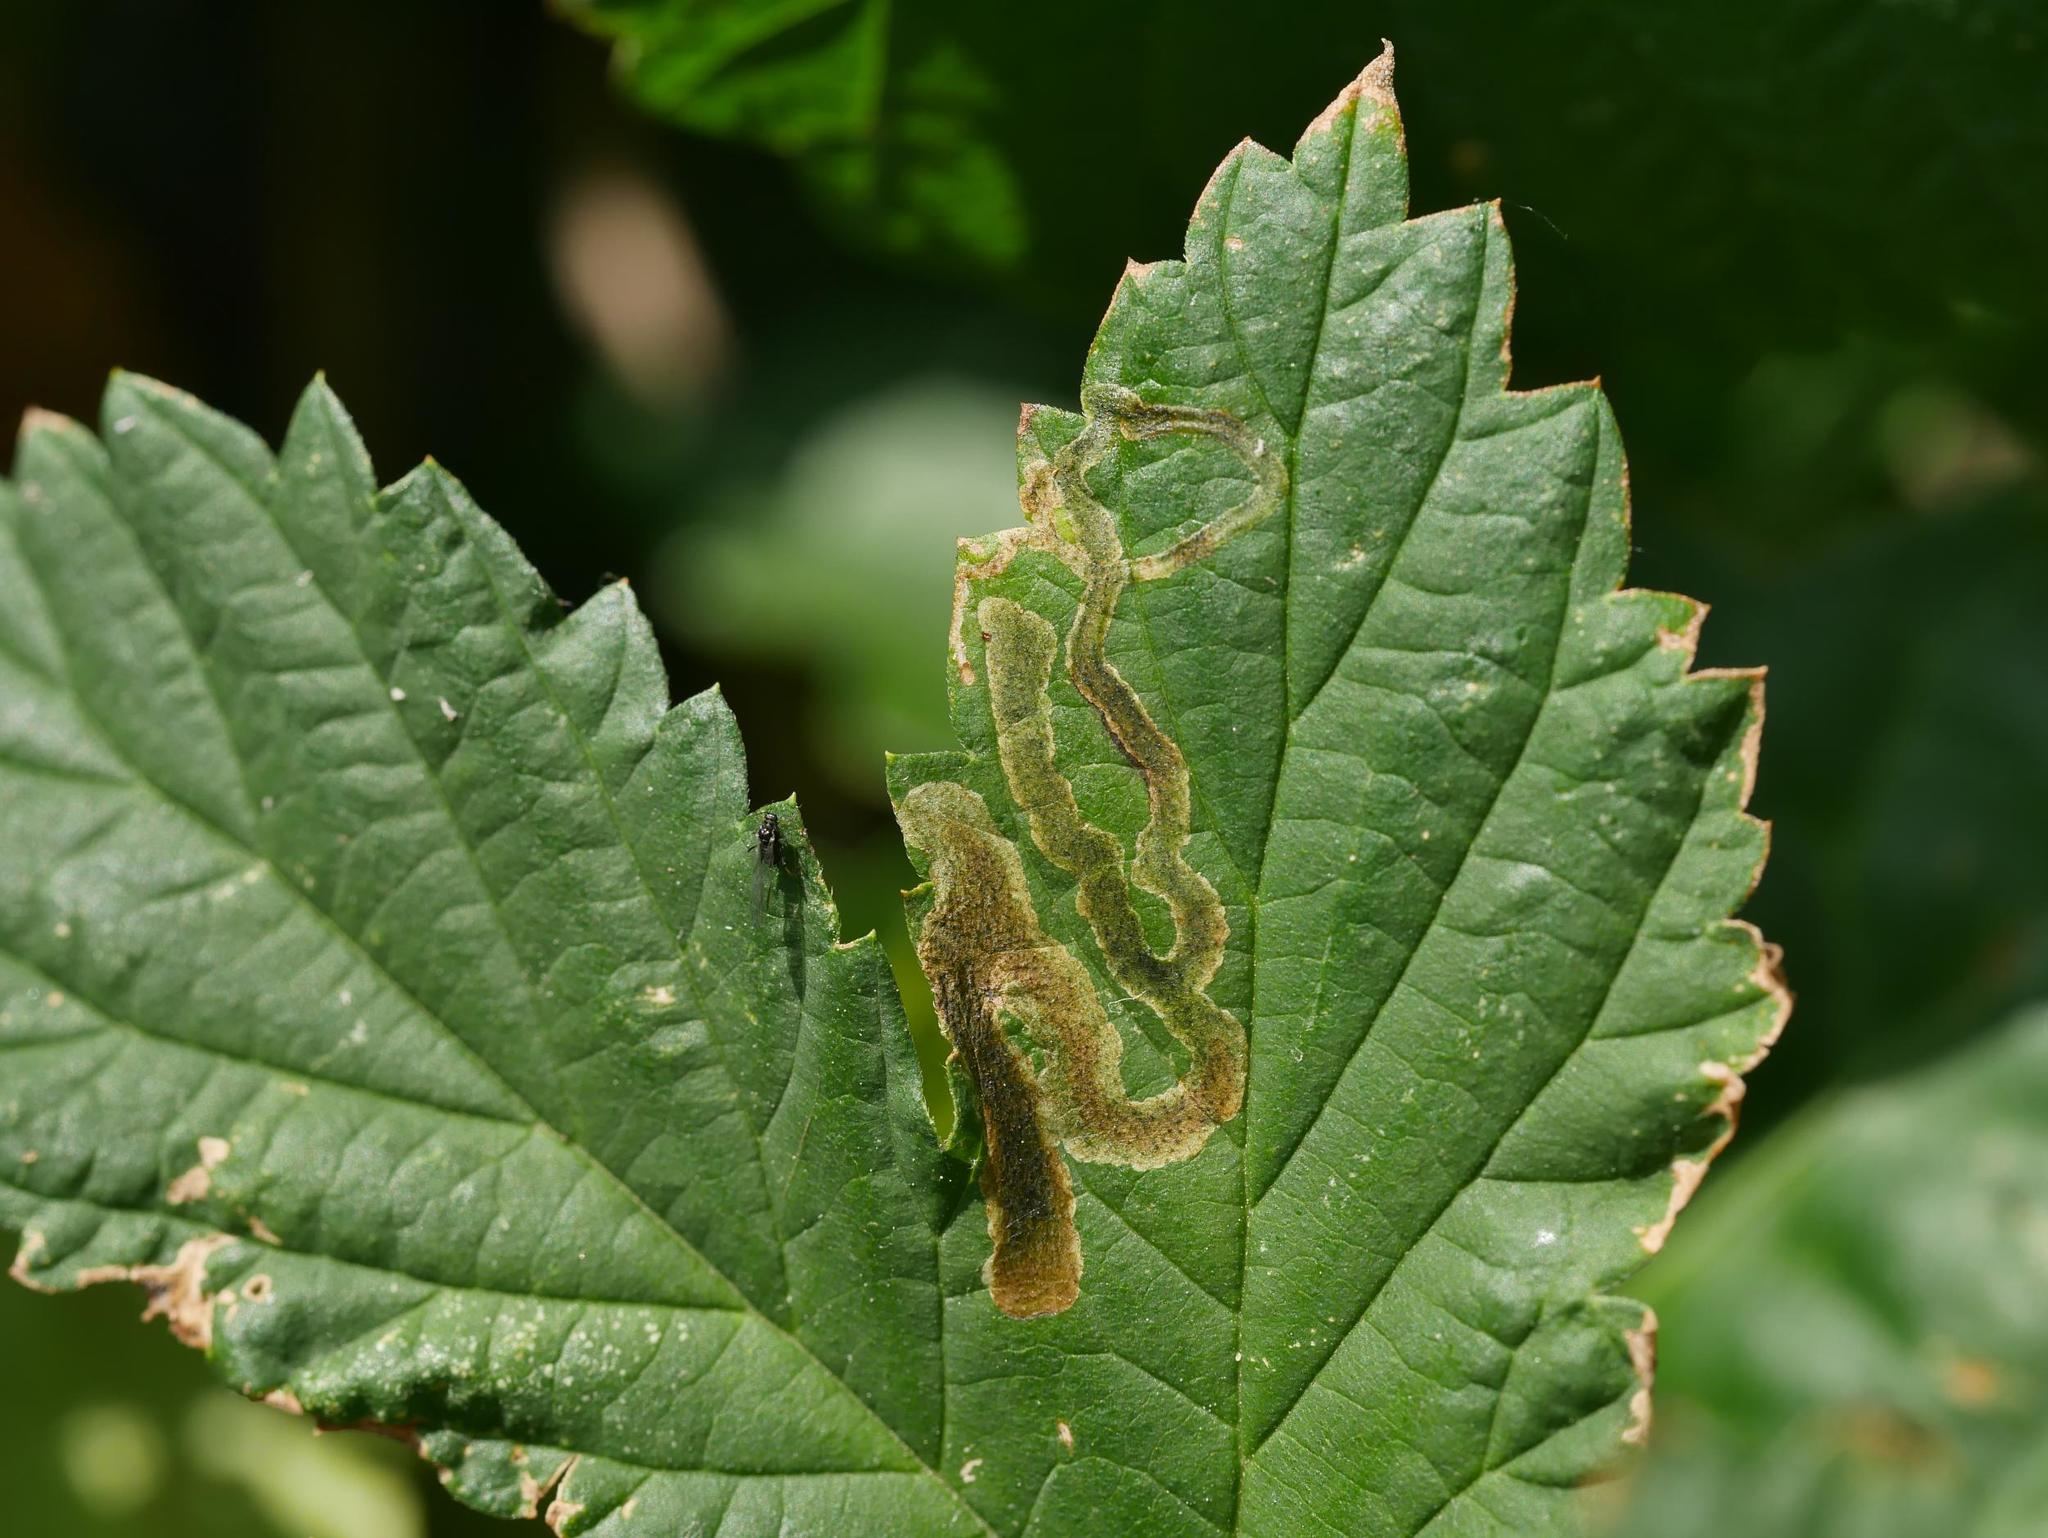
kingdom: Animalia
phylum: Arthropoda
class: Insecta
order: Diptera
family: Agromyzidae
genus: Agromyza
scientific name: Agromyza flaviceps
